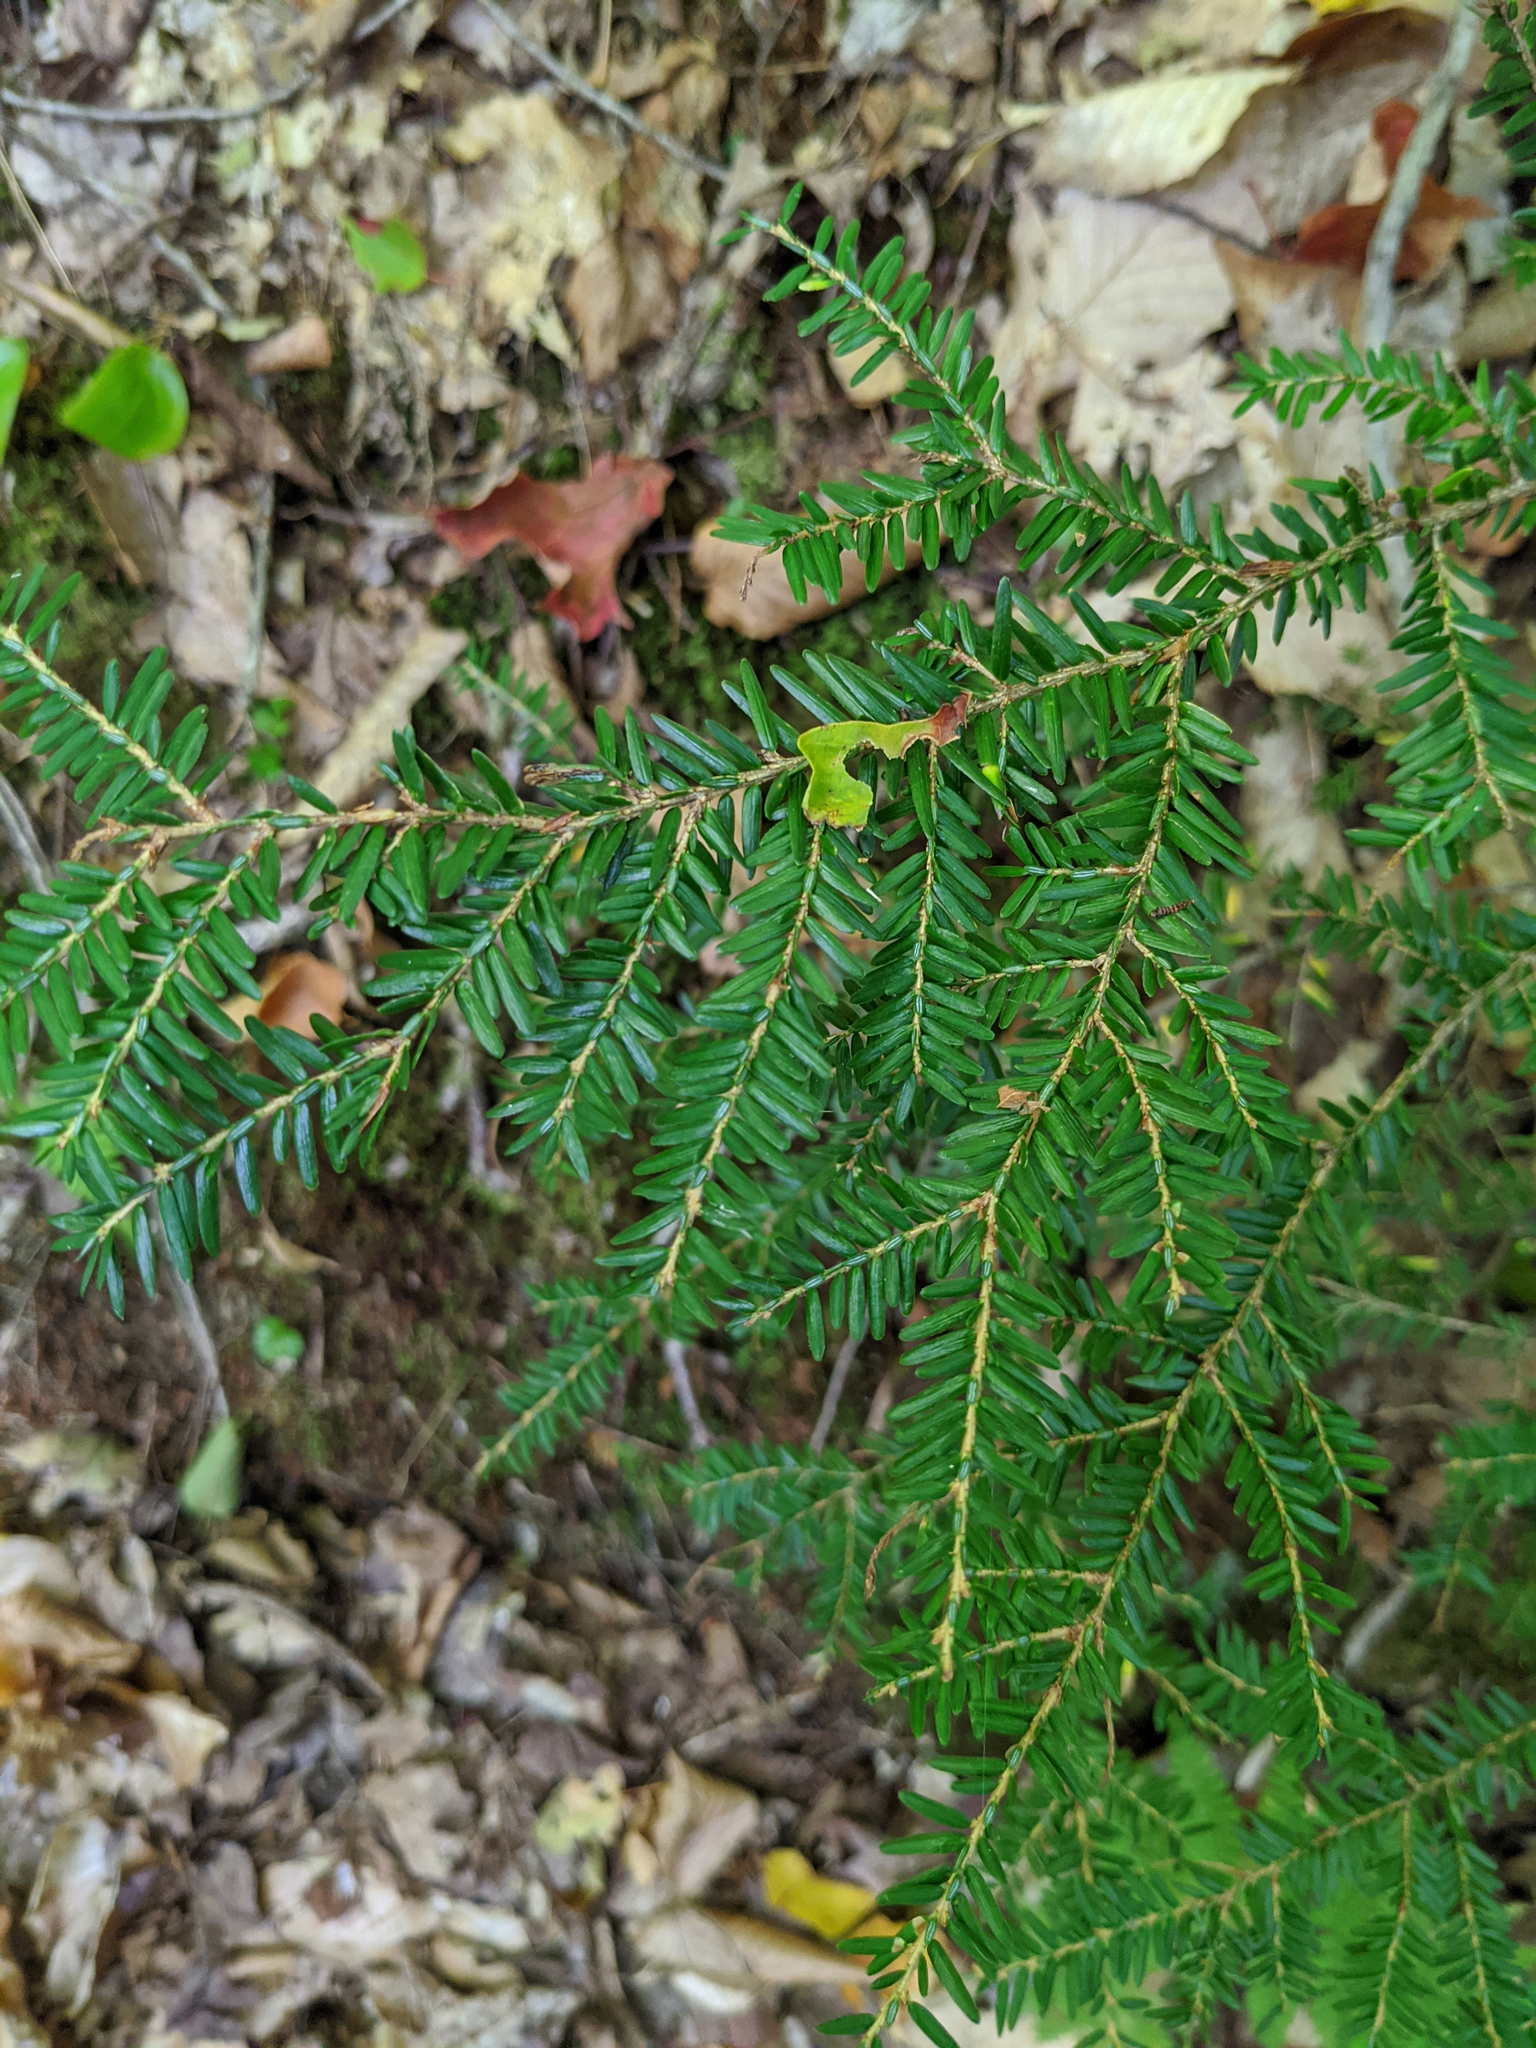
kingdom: Plantae
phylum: Tracheophyta
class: Pinopsida
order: Pinales
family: Pinaceae
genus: Tsuga
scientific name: Tsuga canadensis
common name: Eastern hemlock
